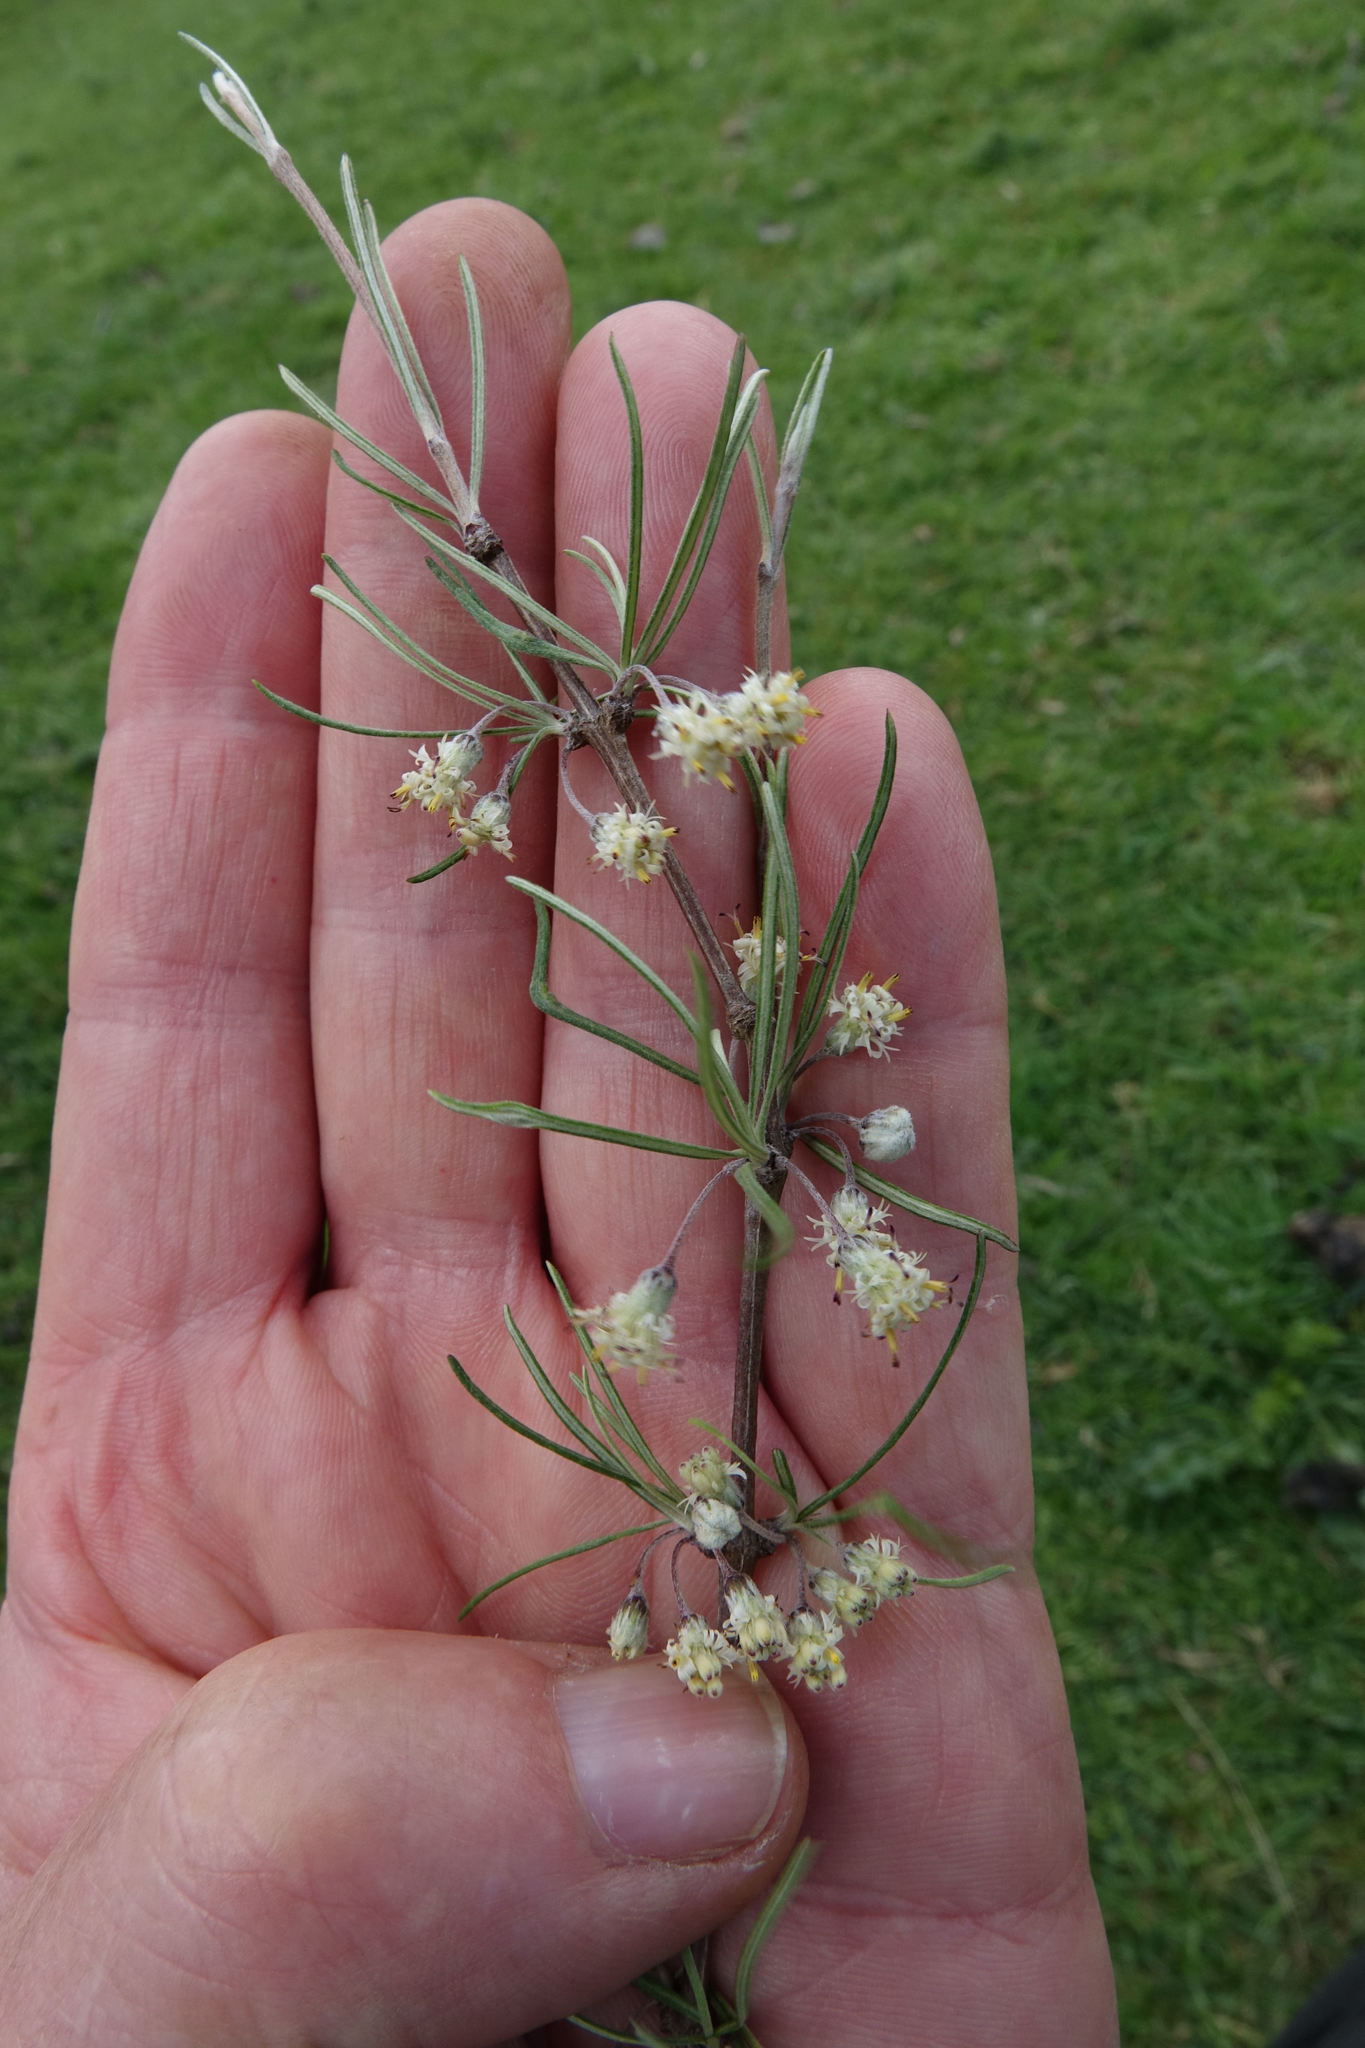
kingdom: Plantae
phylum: Tracheophyta
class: Magnoliopsida
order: Asterales
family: Asteraceae
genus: Olearia
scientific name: Olearia lineata
